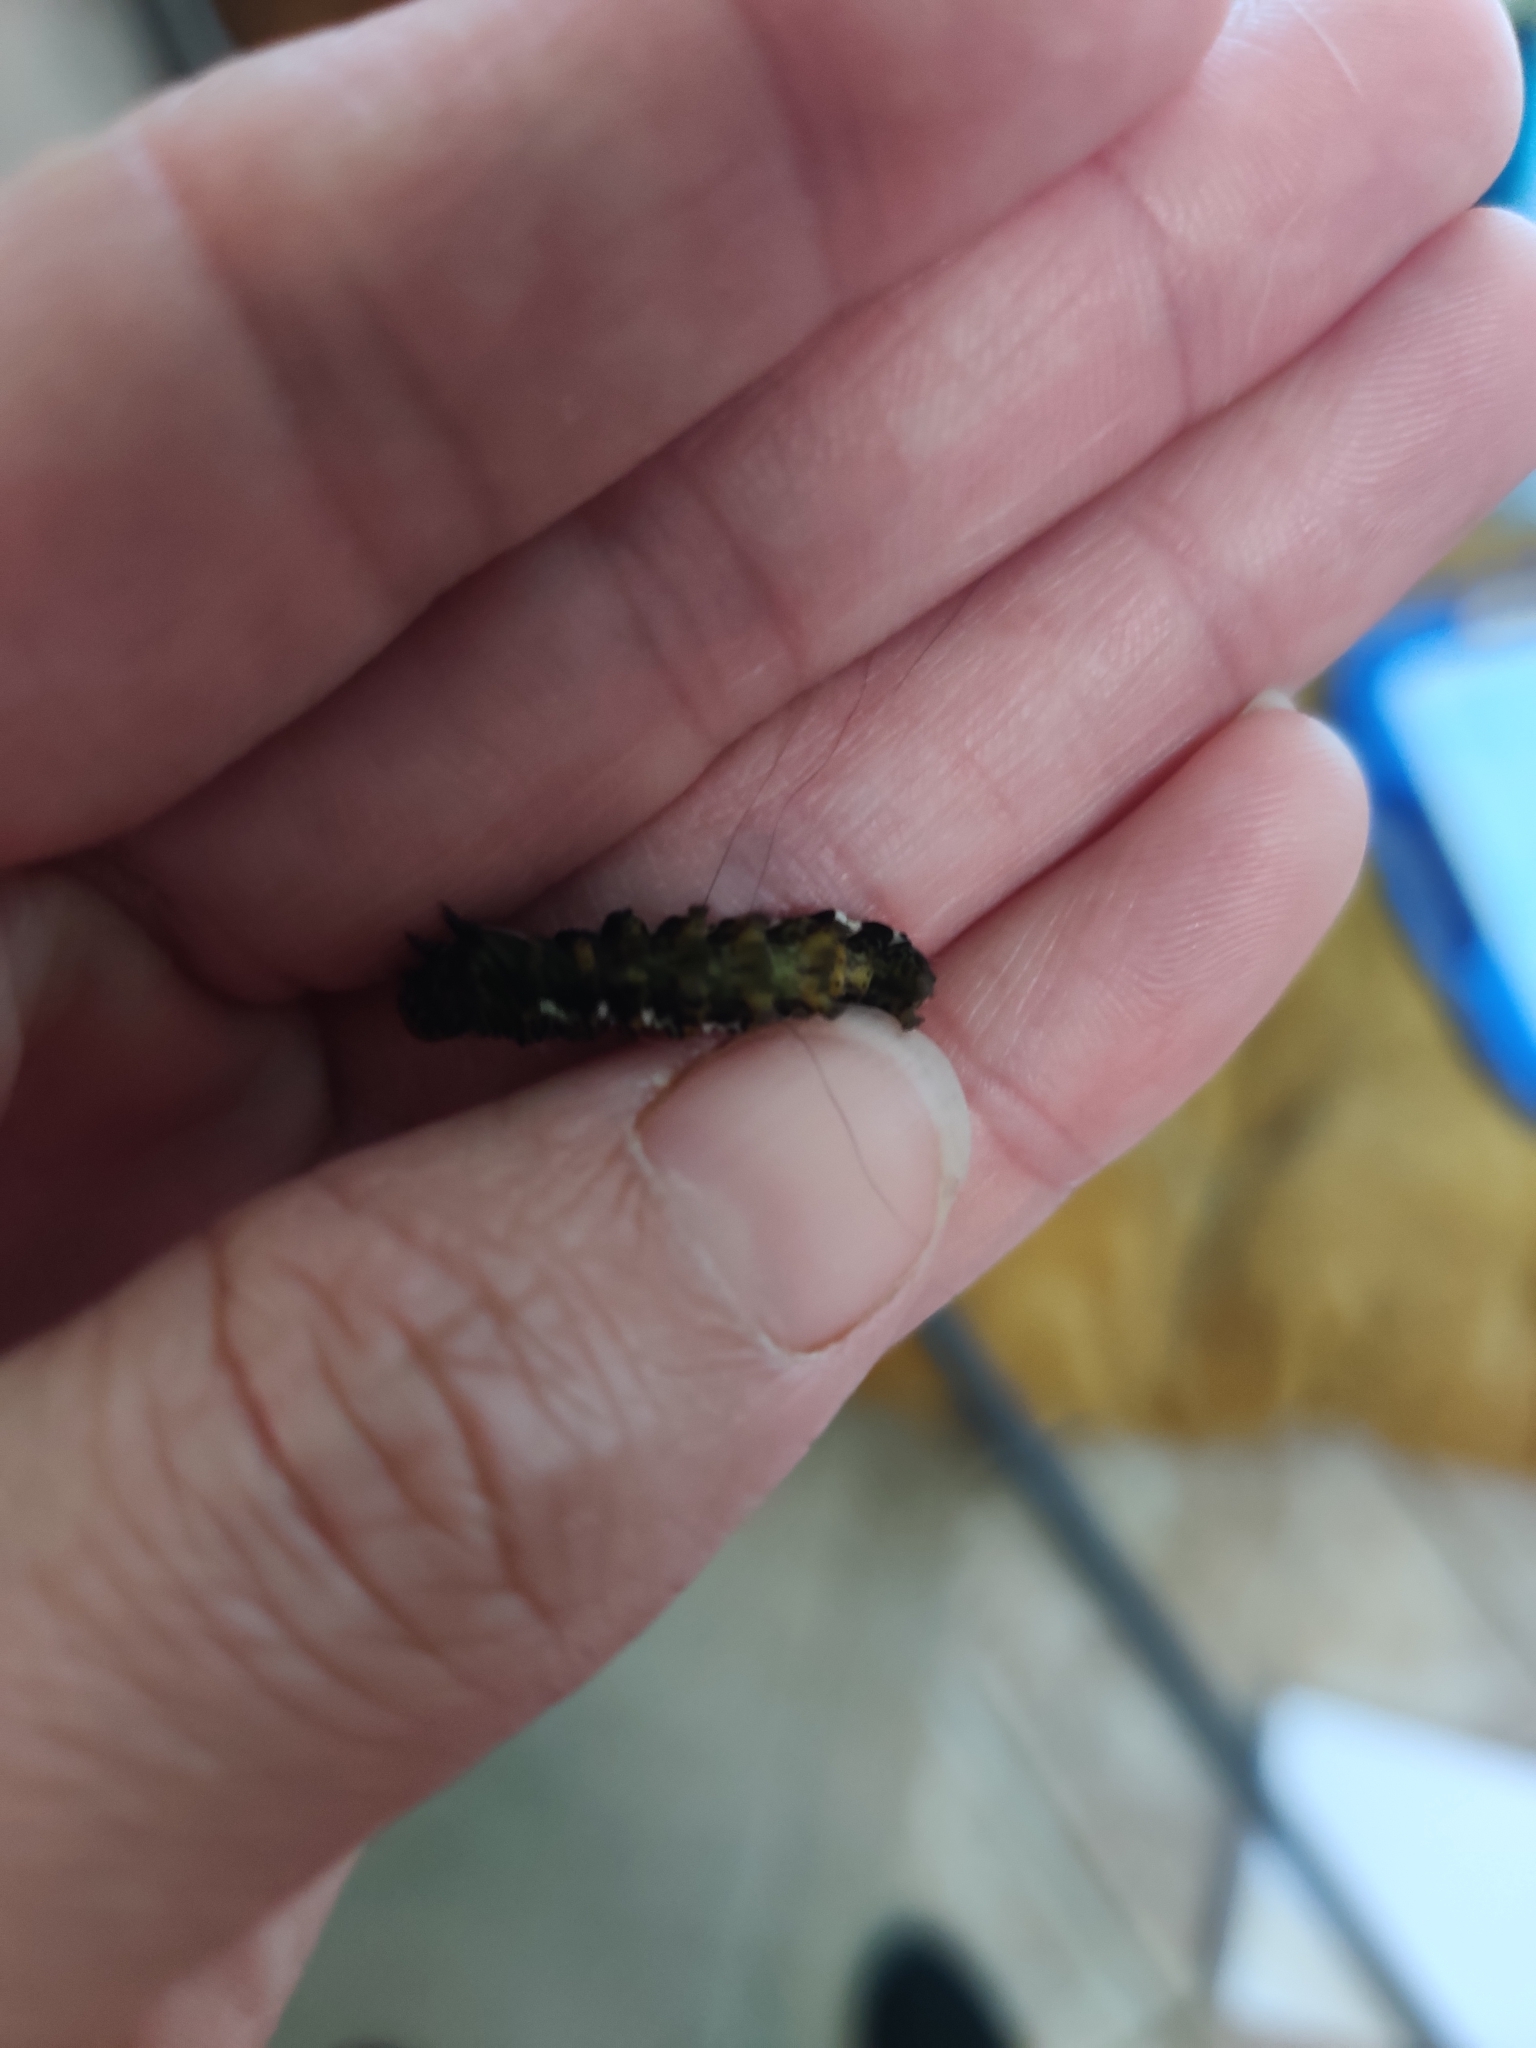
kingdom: Animalia
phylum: Arthropoda
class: Insecta
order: Lepidoptera
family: Noctuidae
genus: Alypia
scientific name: Alypia octomaculata
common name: Eight-spotted forester
